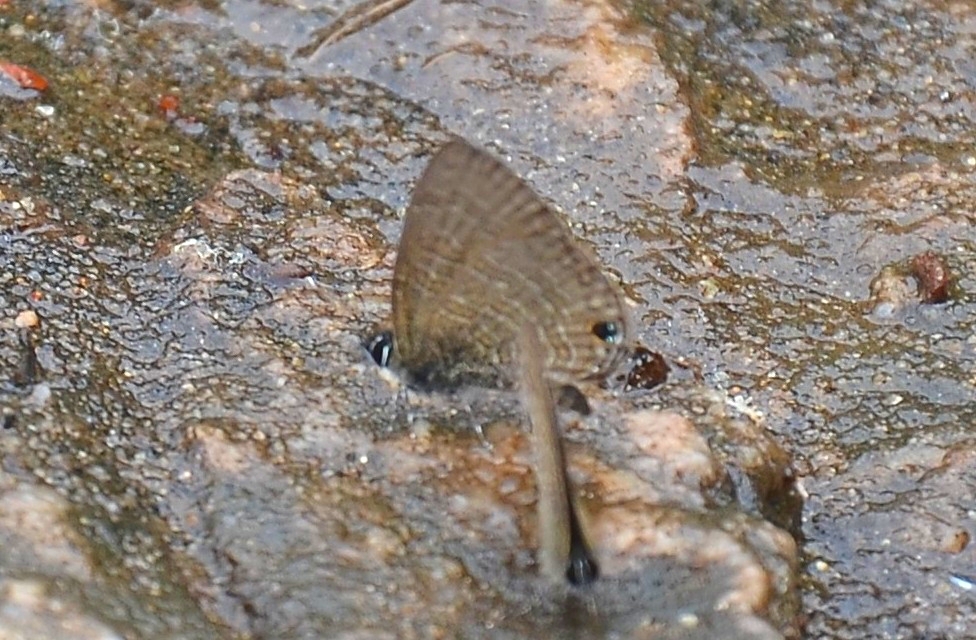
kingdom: Animalia
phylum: Arthropoda
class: Insecta
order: Lepidoptera
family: Lycaenidae
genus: Prosotas
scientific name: Prosotas nora
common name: Common line blue
